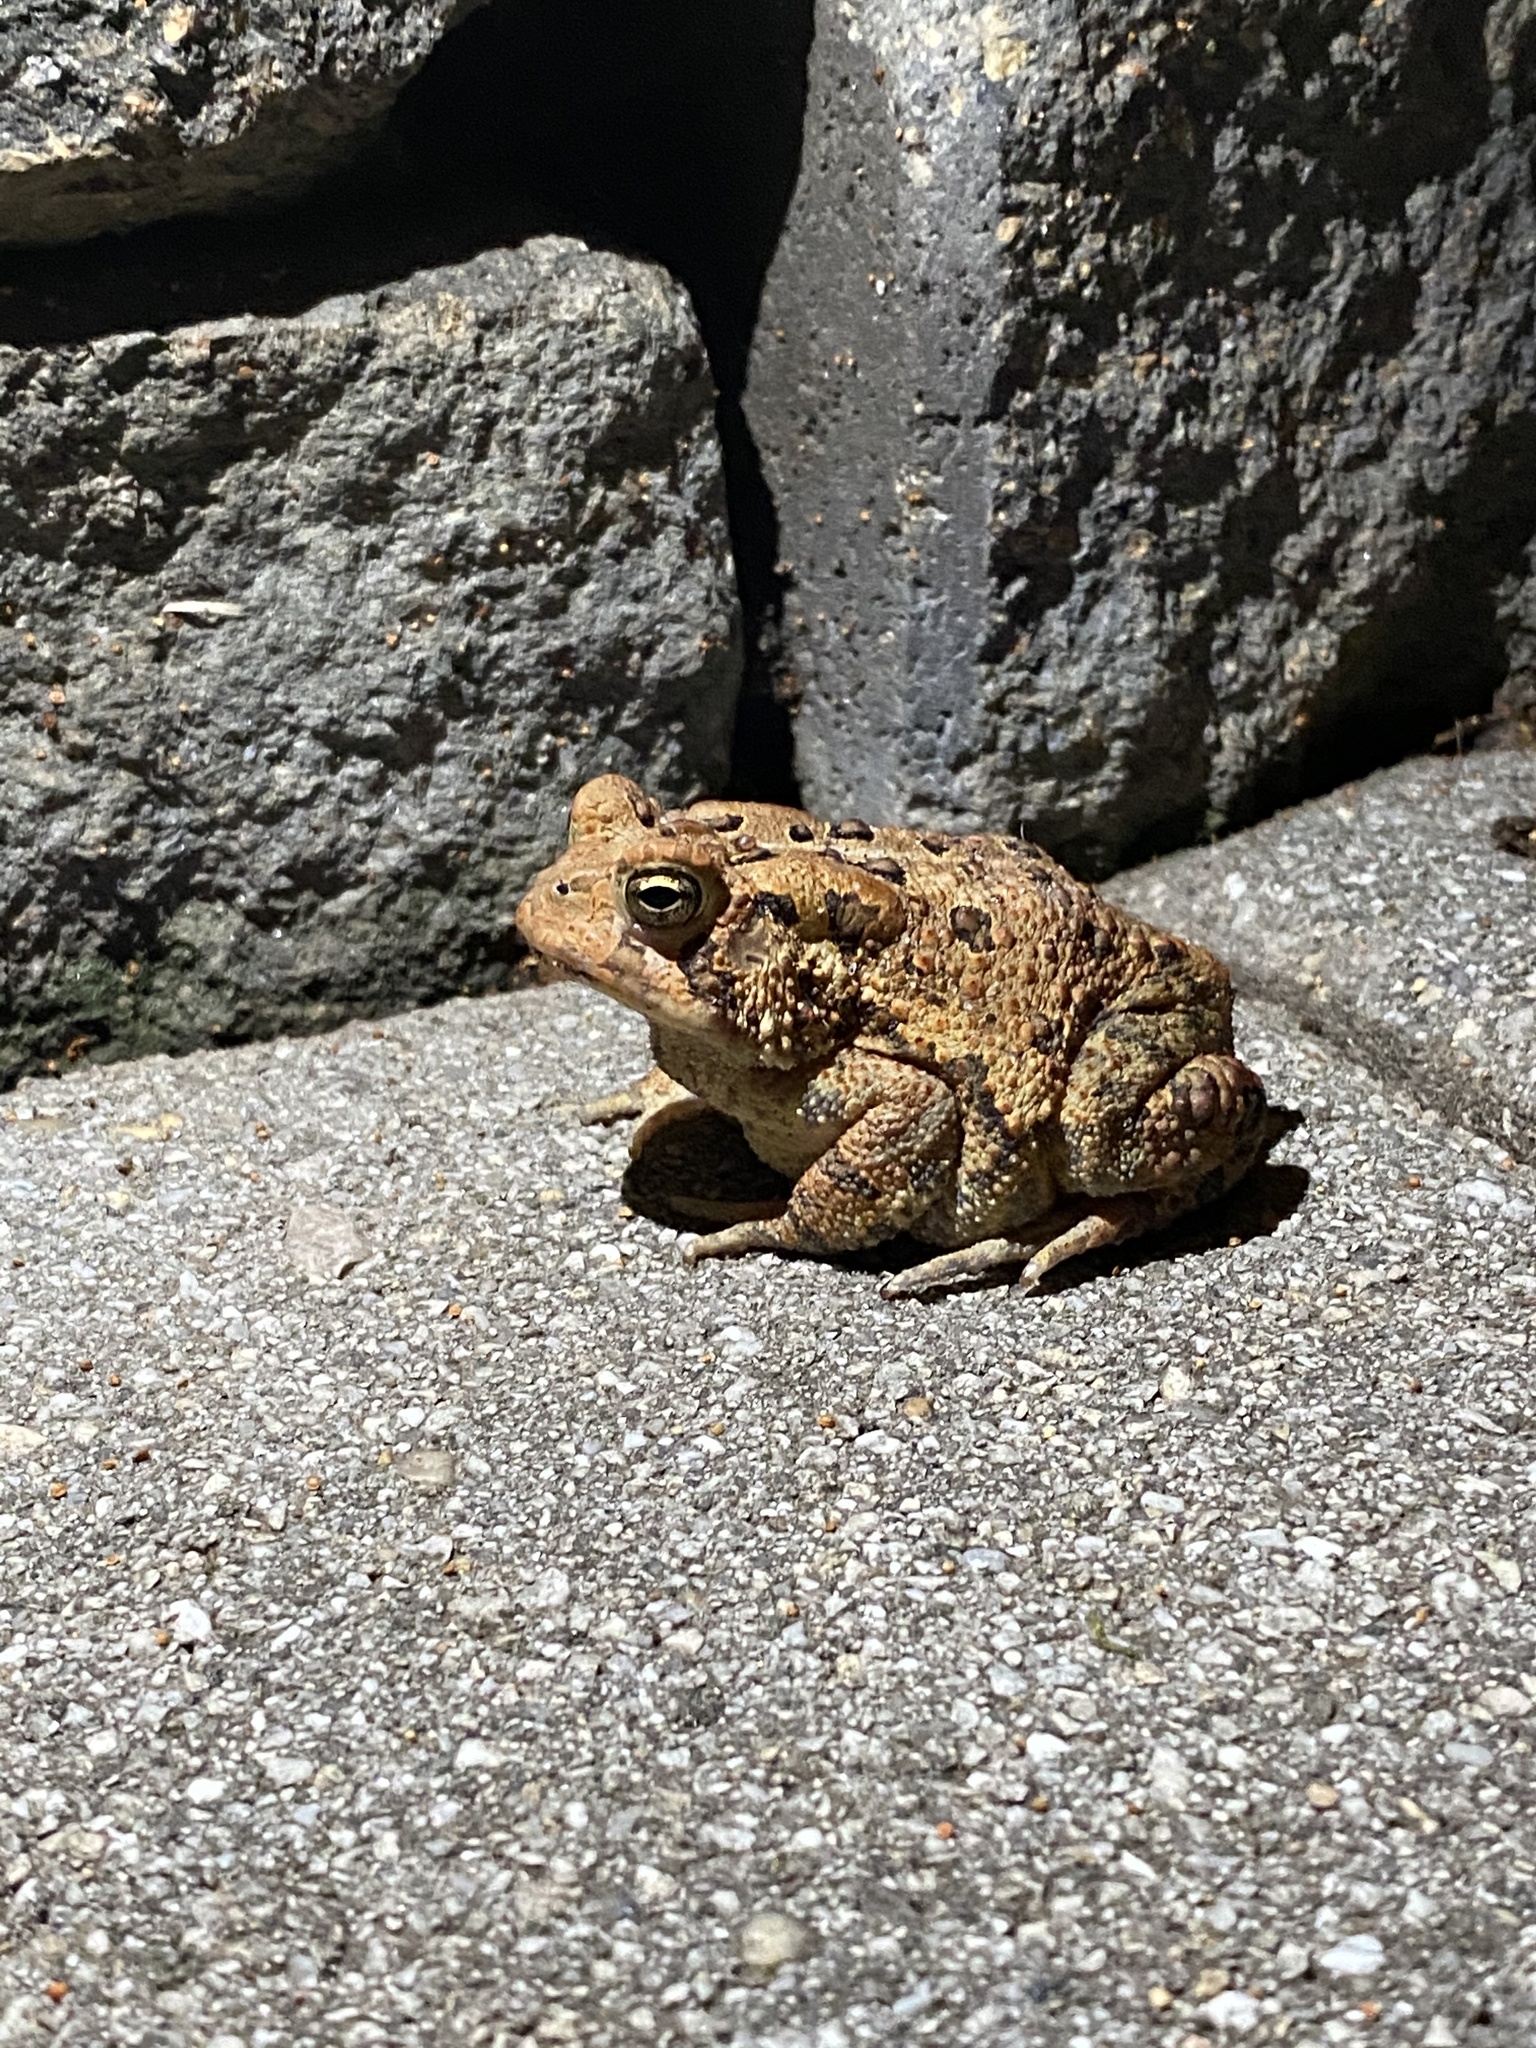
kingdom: Animalia
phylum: Chordata
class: Amphibia
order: Anura
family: Bufonidae
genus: Anaxyrus
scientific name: Anaxyrus americanus
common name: American toad
